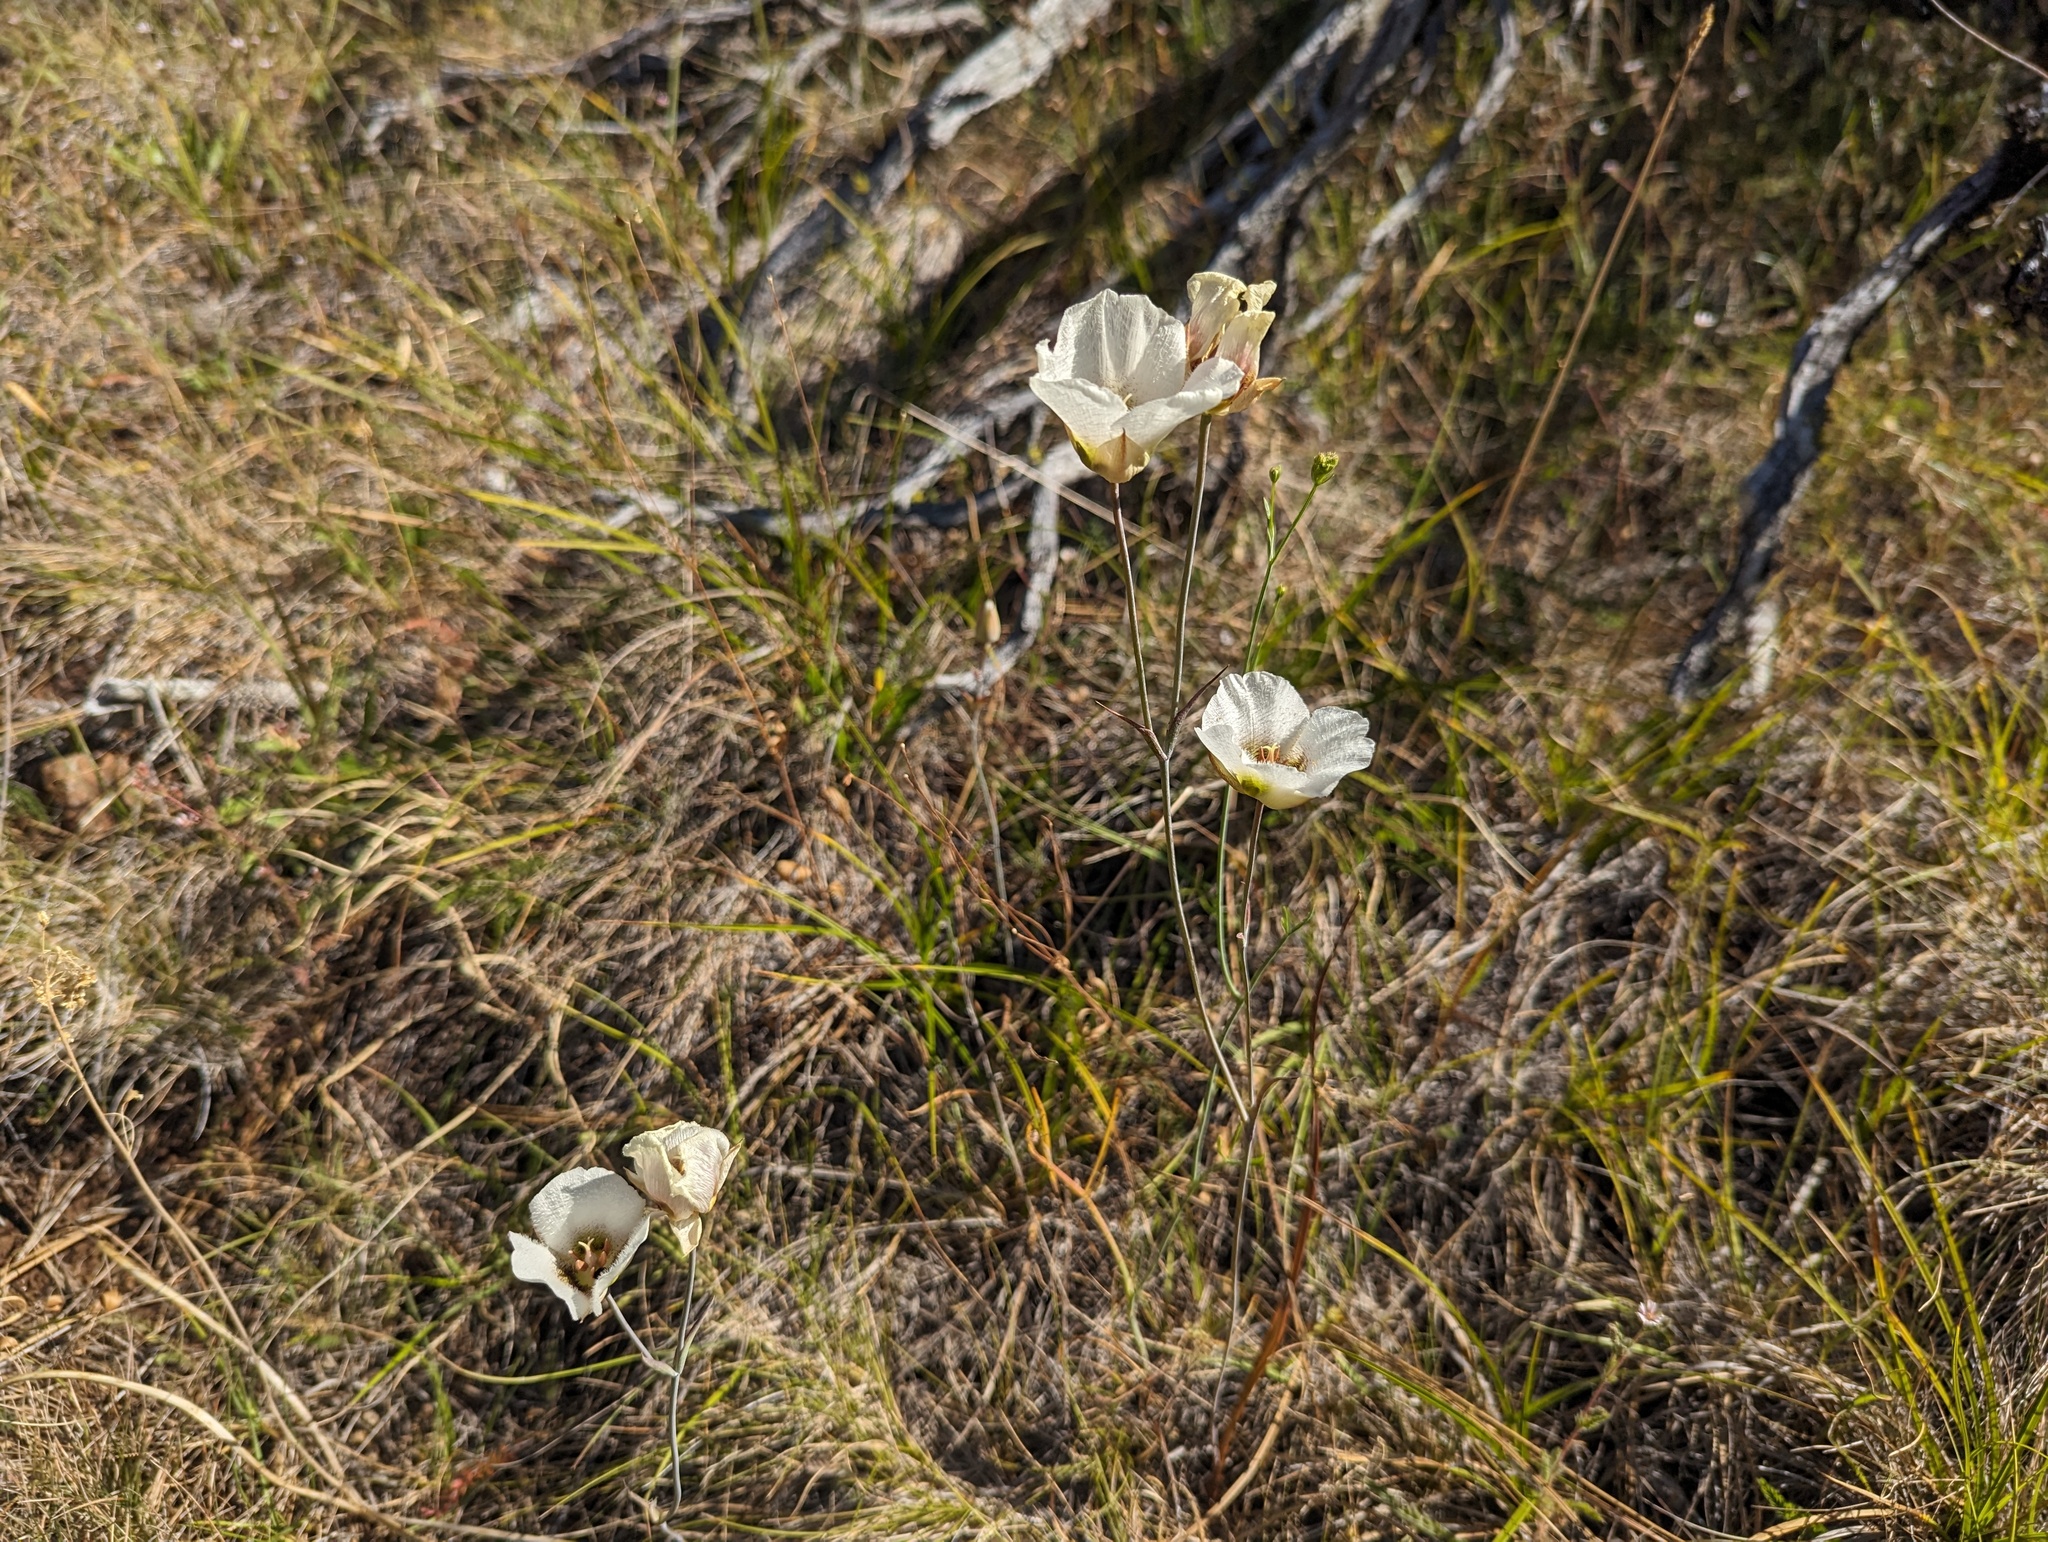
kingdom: Plantae
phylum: Tracheophyta
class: Liliopsida
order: Liliales
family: Liliaceae
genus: Calochortus
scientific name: Calochortus howellii
